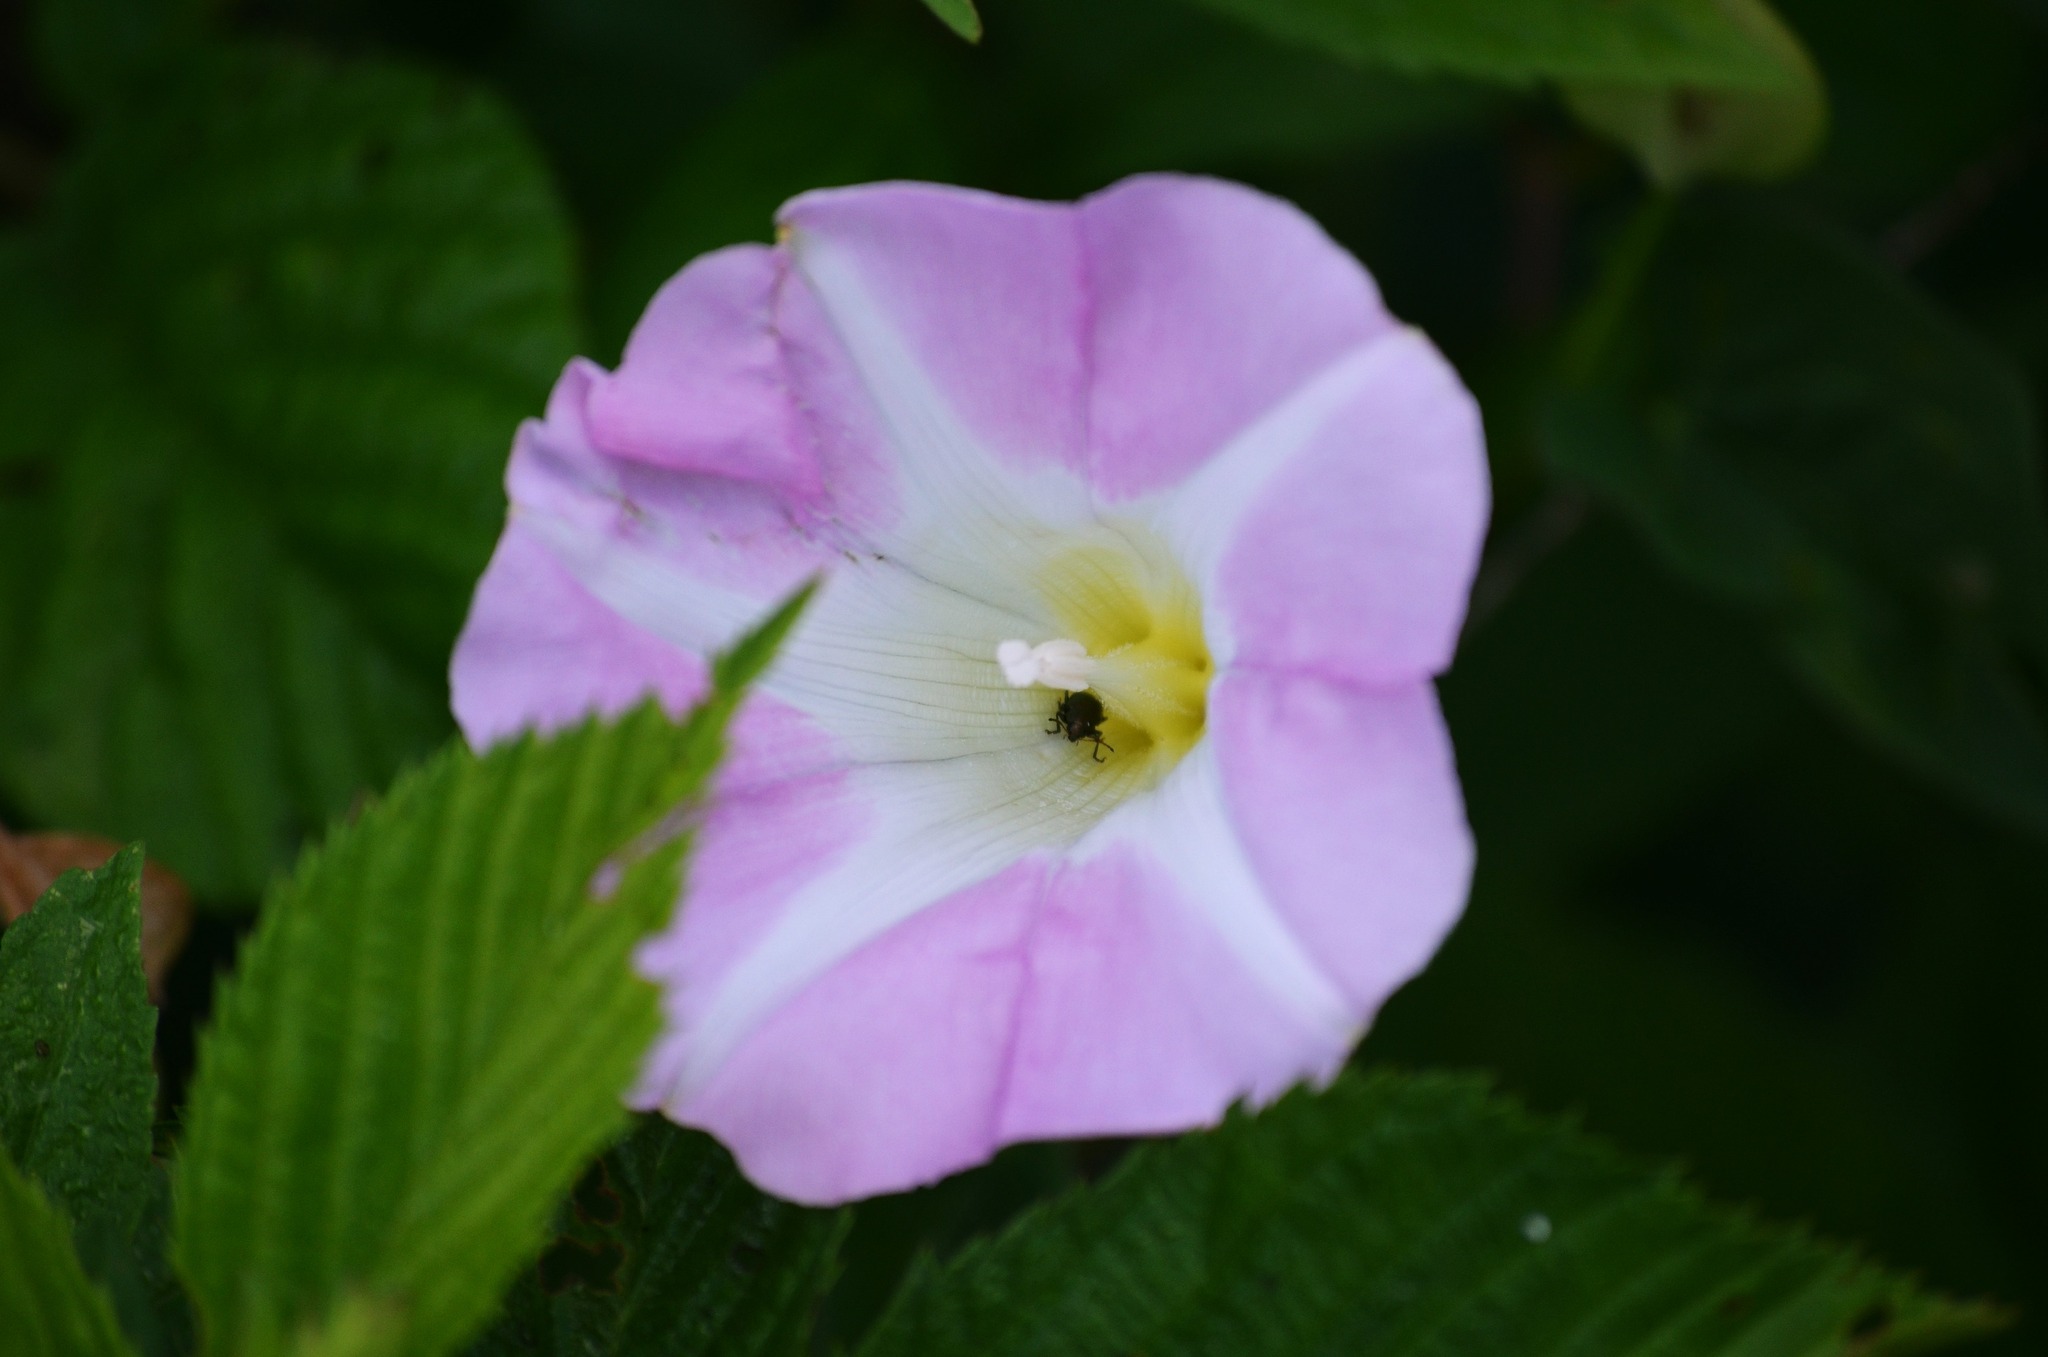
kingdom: Plantae
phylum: Tracheophyta
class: Magnoliopsida
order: Solanales
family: Convolvulaceae
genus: Calystegia
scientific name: Calystegia sepium
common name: Hedge bindweed
